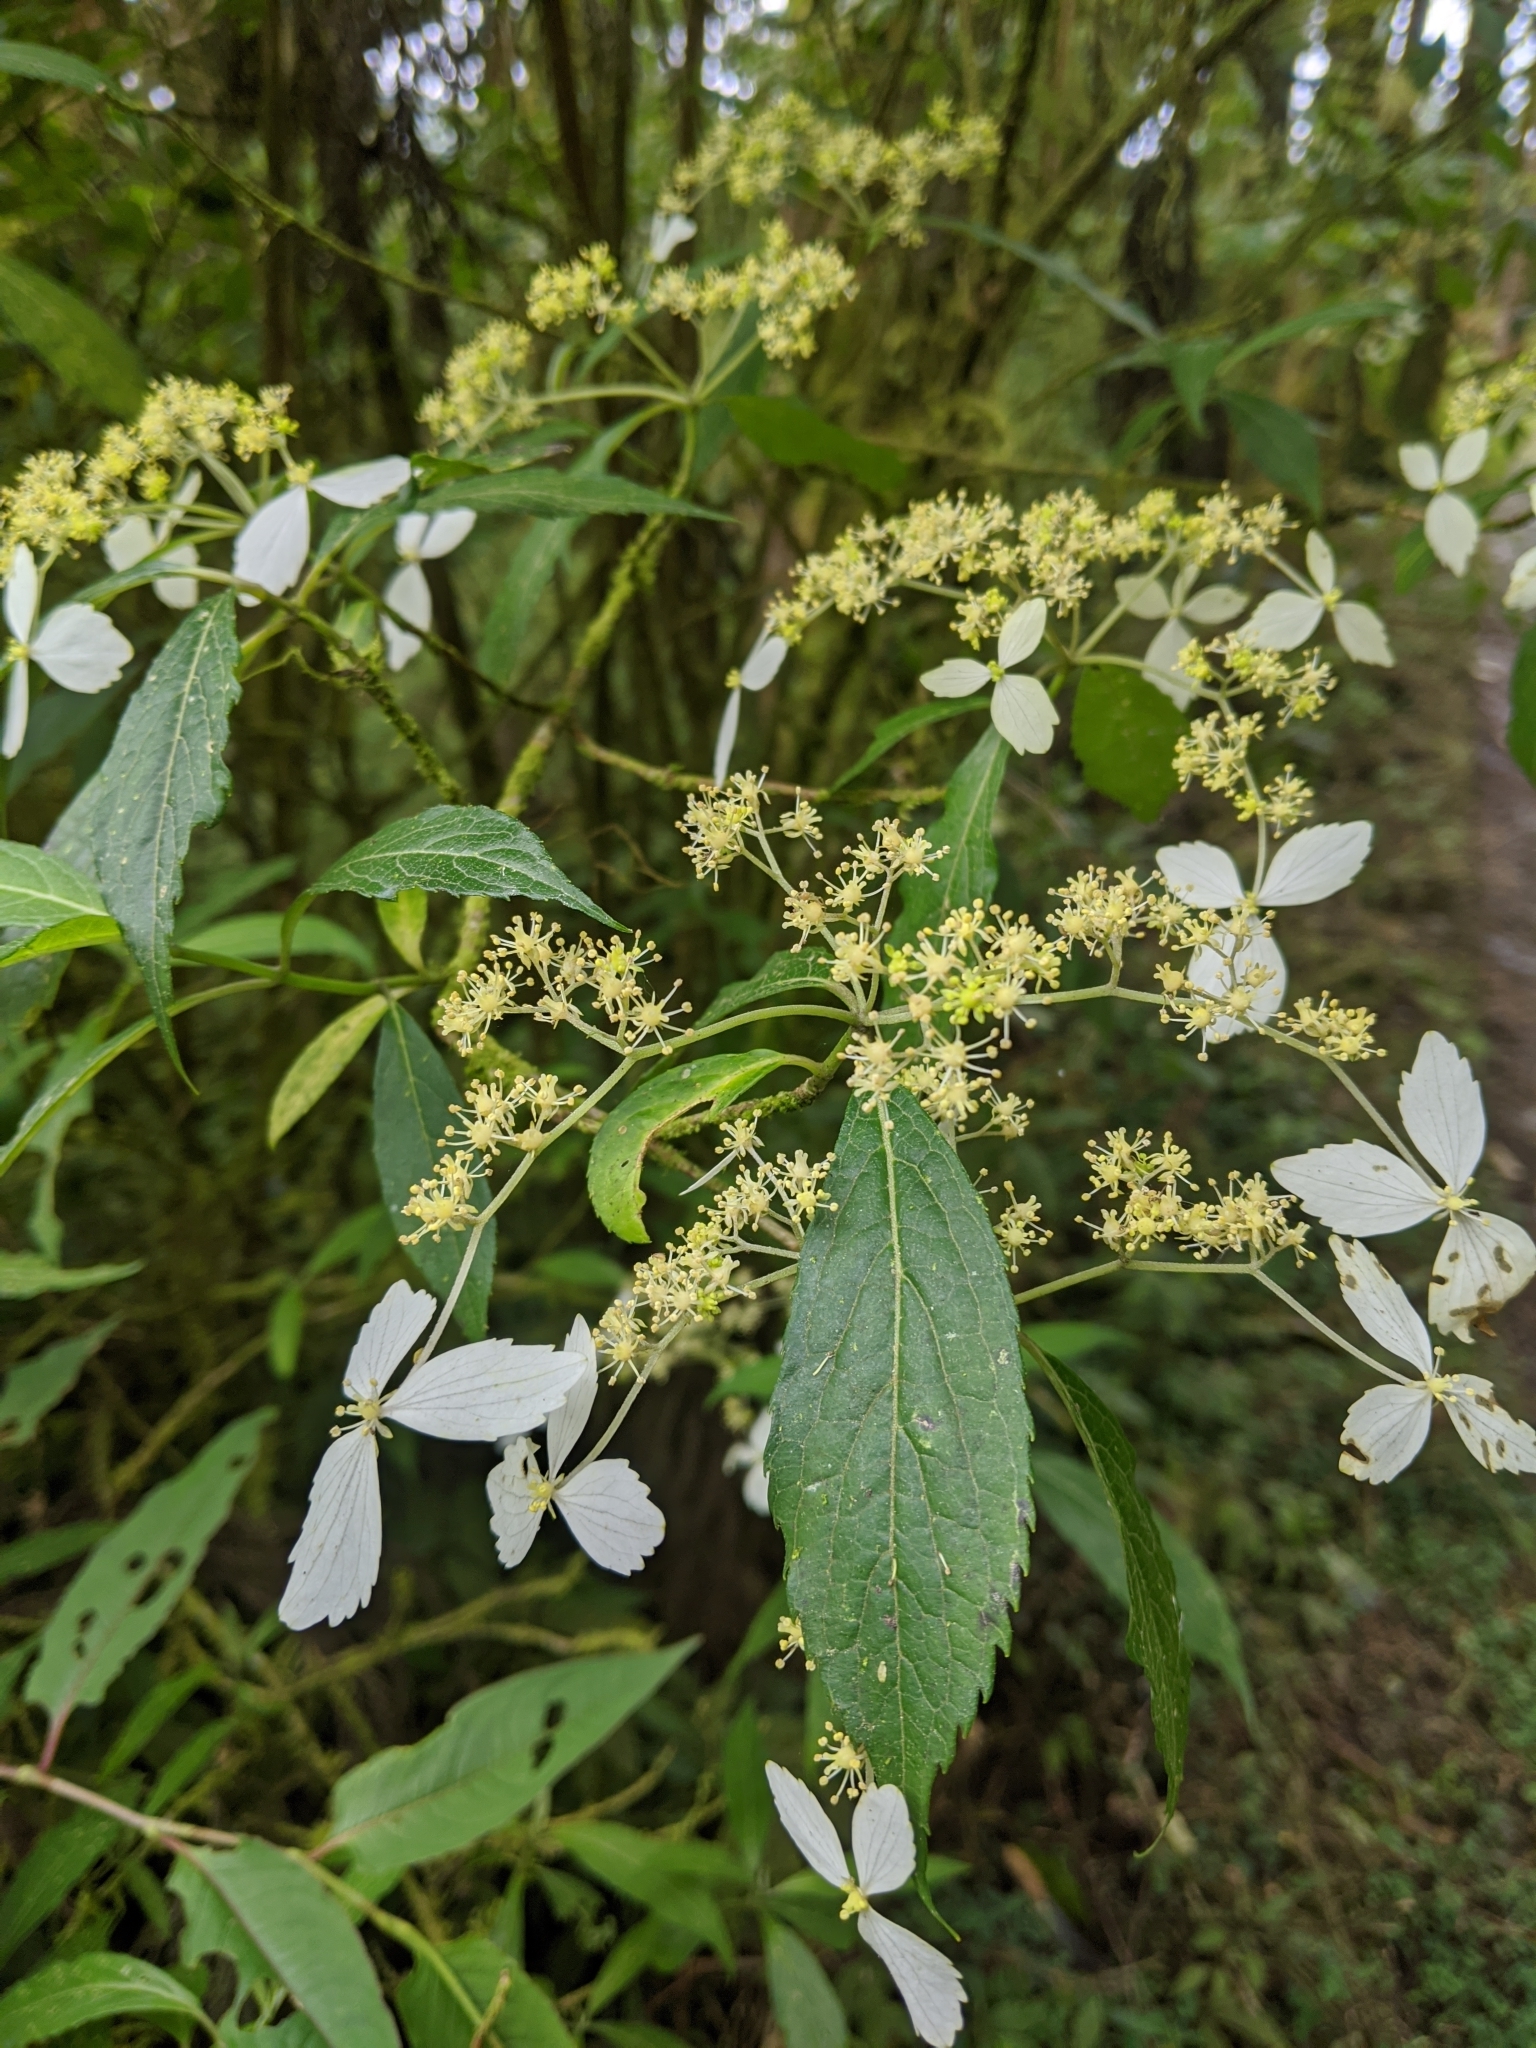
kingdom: Plantae
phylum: Tracheophyta
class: Magnoliopsida
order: Cornales
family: Hydrangeaceae
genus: Hydrangea
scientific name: Hydrangea chinensis
